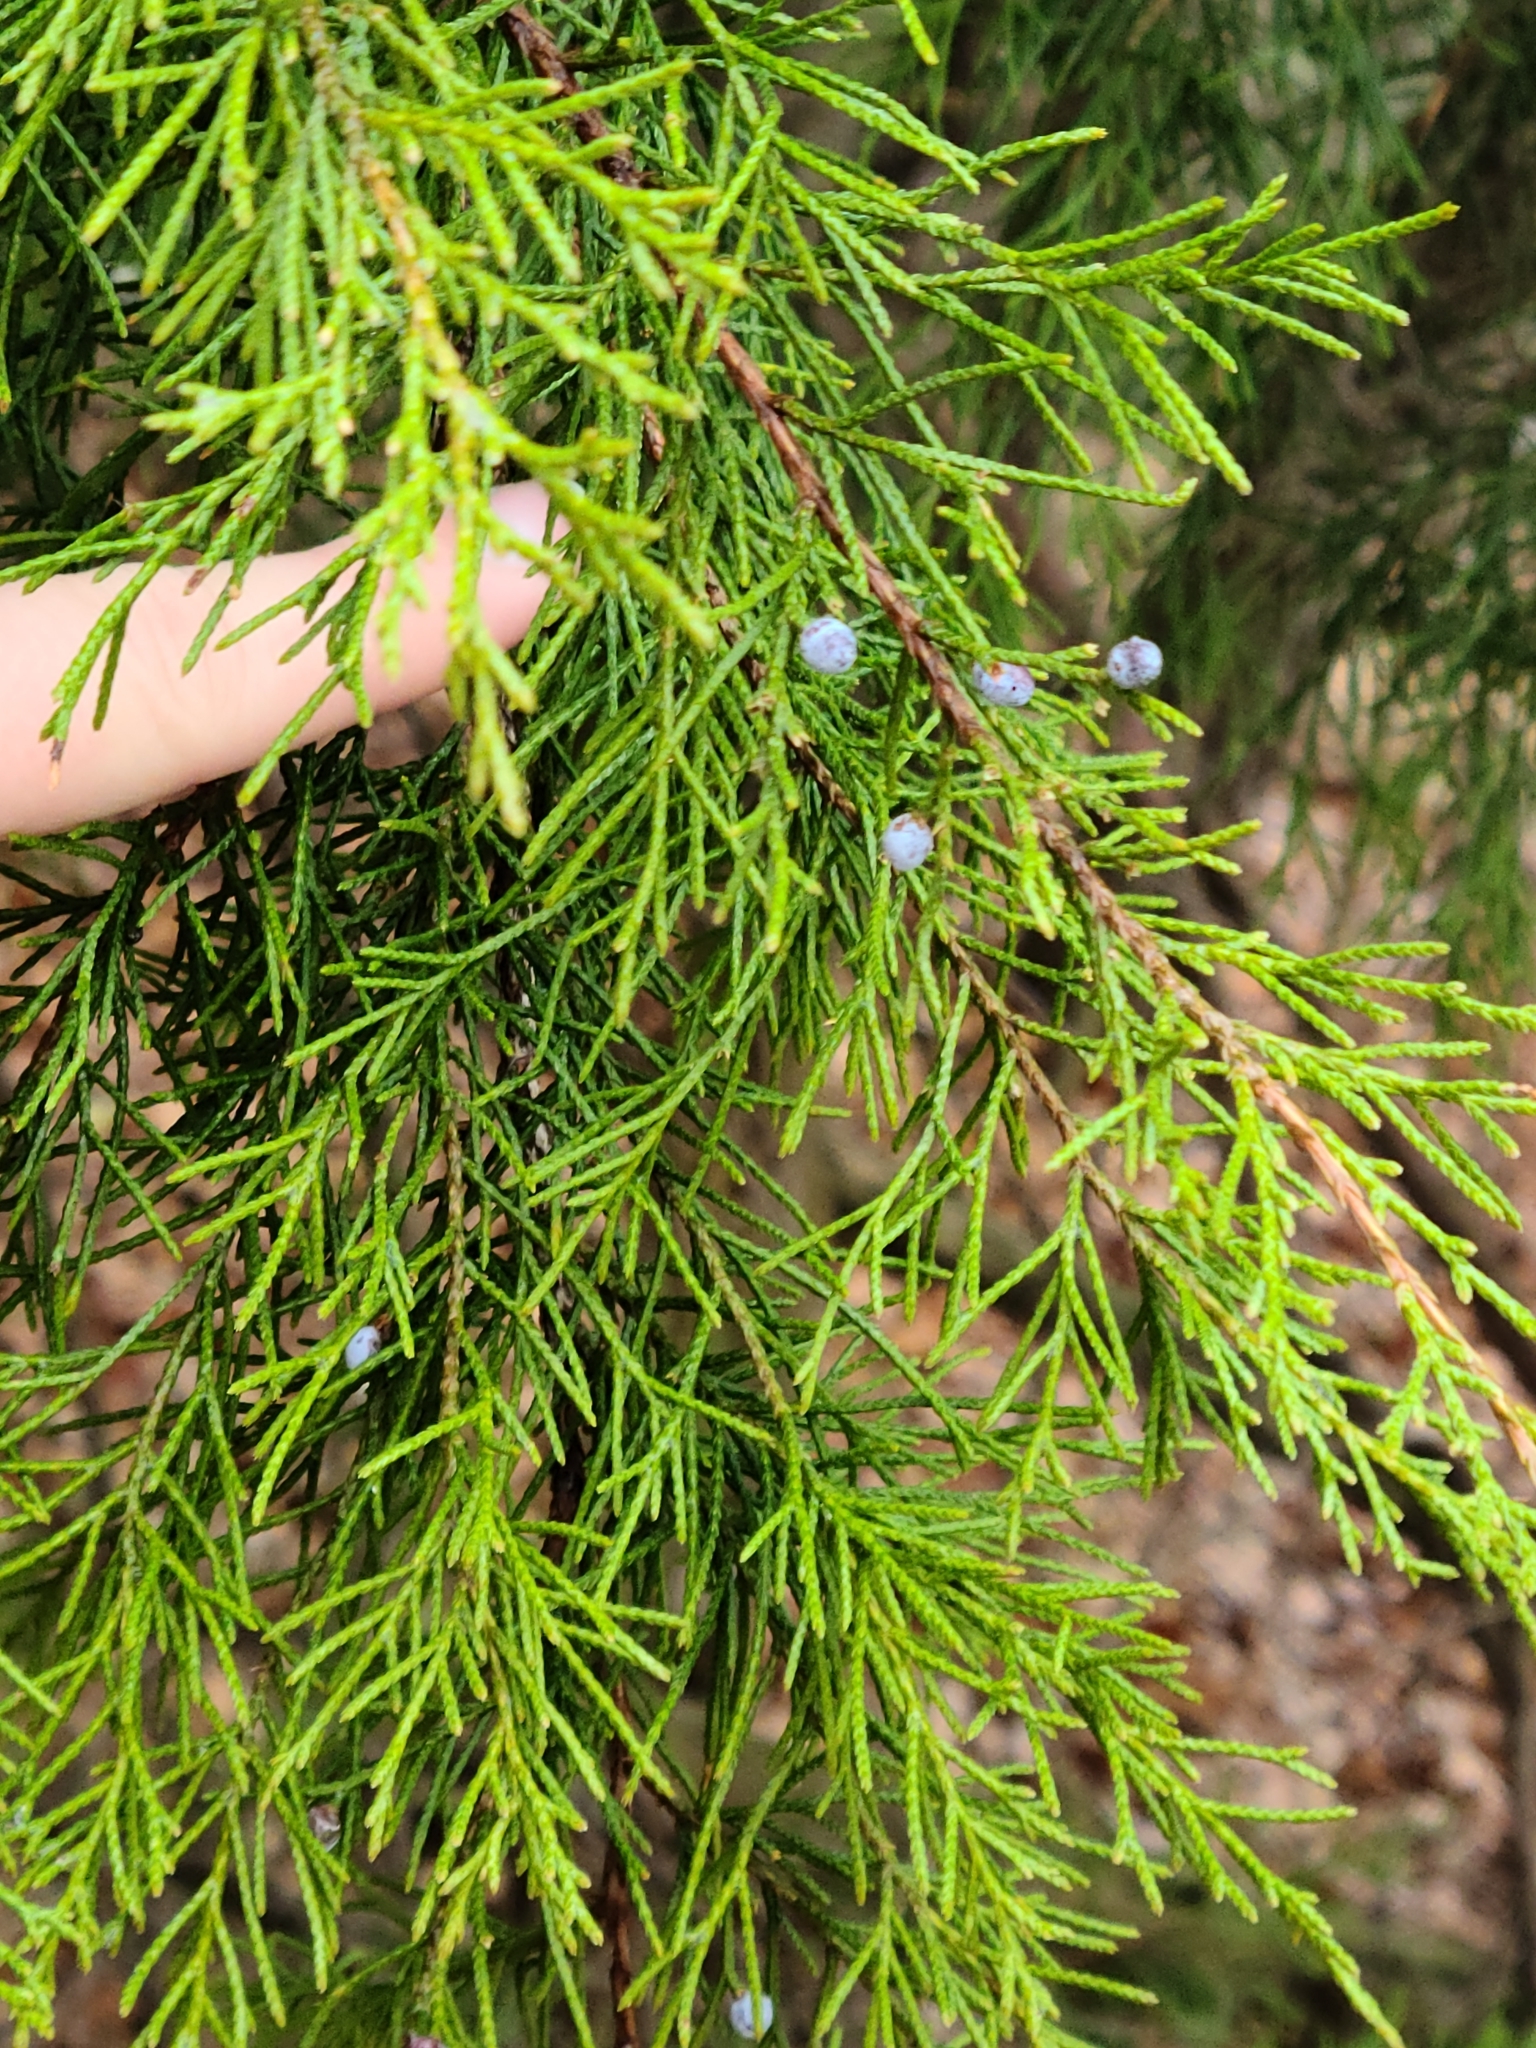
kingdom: Plantae
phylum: Tracheophyta
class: Pinopsida
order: Pinales
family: Cupressaceae
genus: Juniperus
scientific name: Juniperus ashei
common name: Mexican juniper
